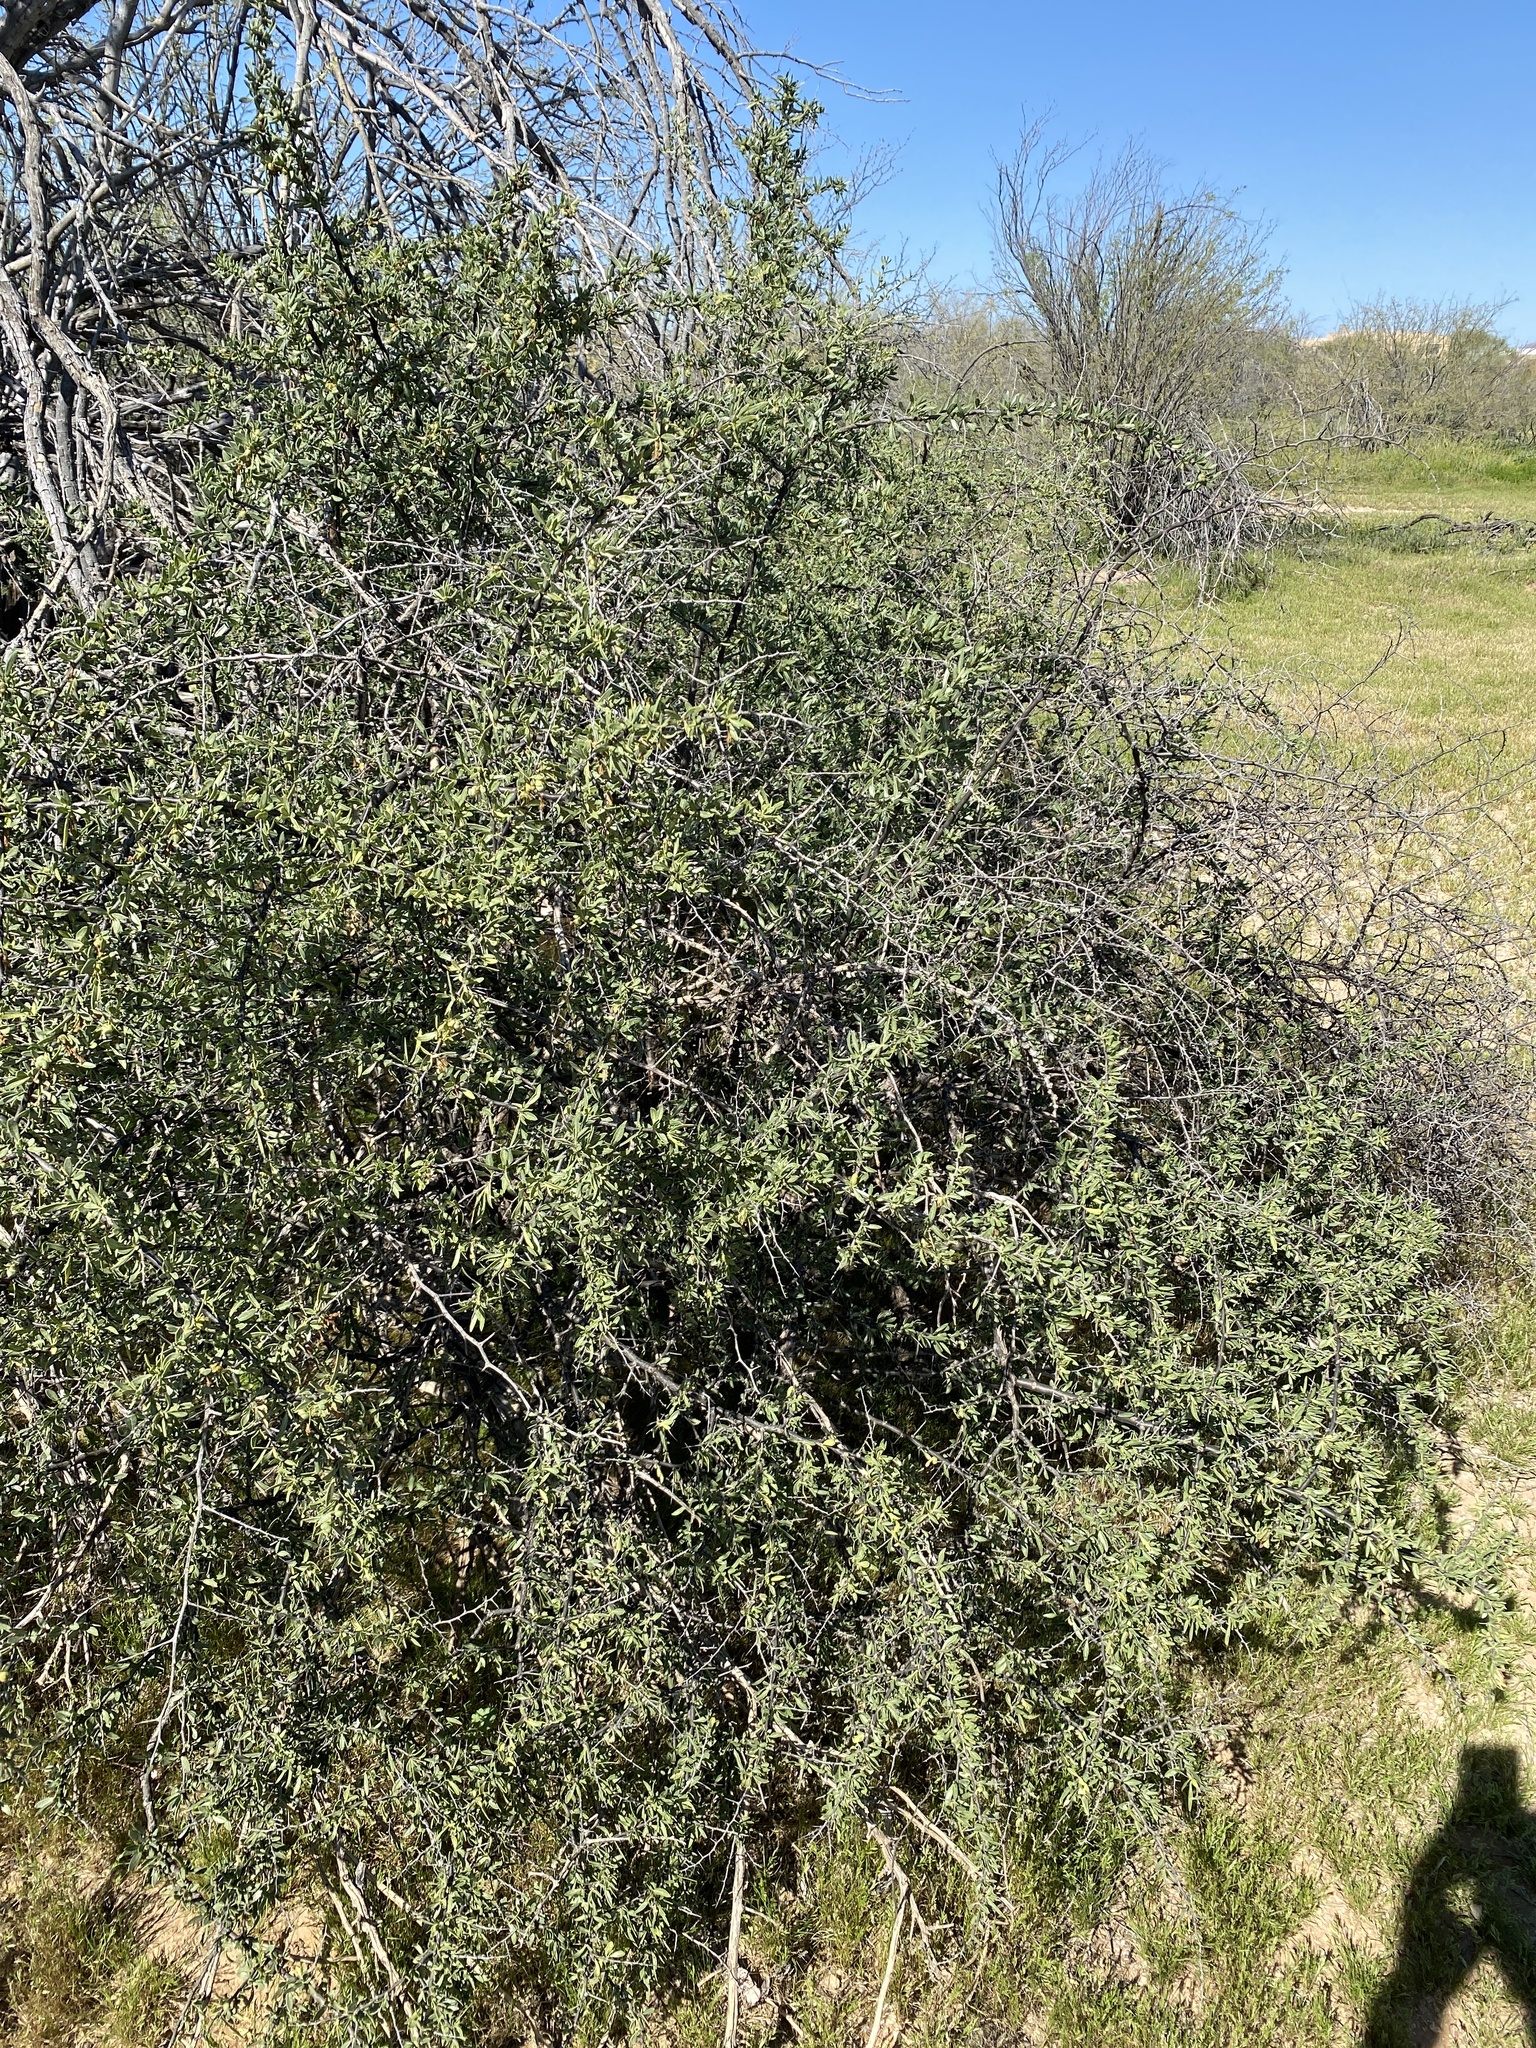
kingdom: Plantae
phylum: Tracheophyta
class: Magnoliopsida
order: Solanales
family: Solanaceae
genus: Lycium
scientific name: Lycium
